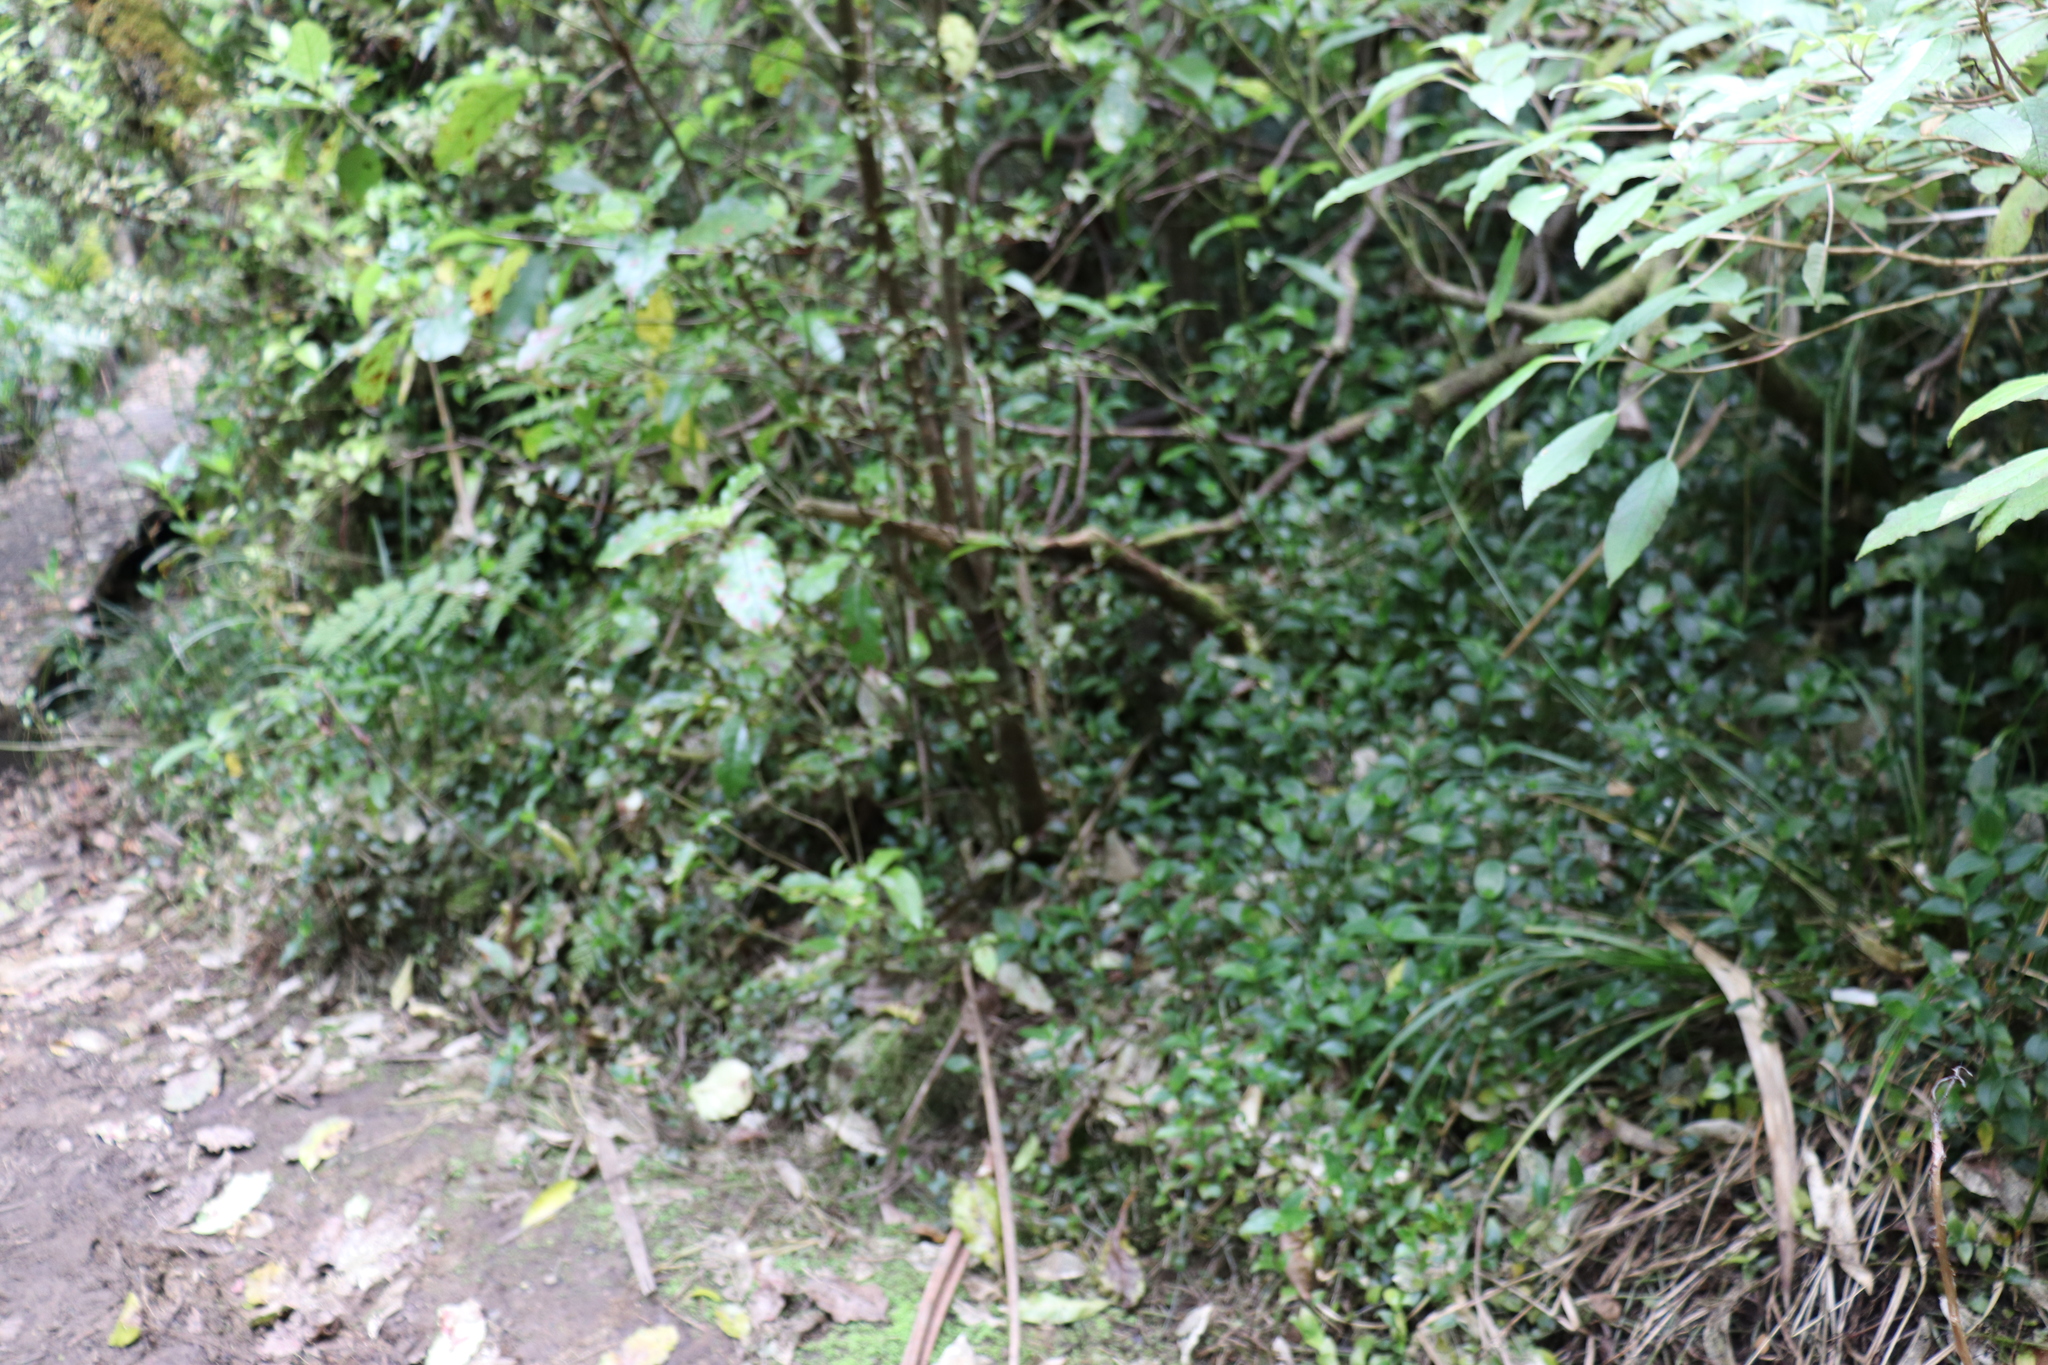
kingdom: Plantae
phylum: Tracheophyta
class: Liliopsida
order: Commelinales
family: Commelinaceae
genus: Tradescantia
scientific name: Tradescantia fluminensis
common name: Wandering-jew
